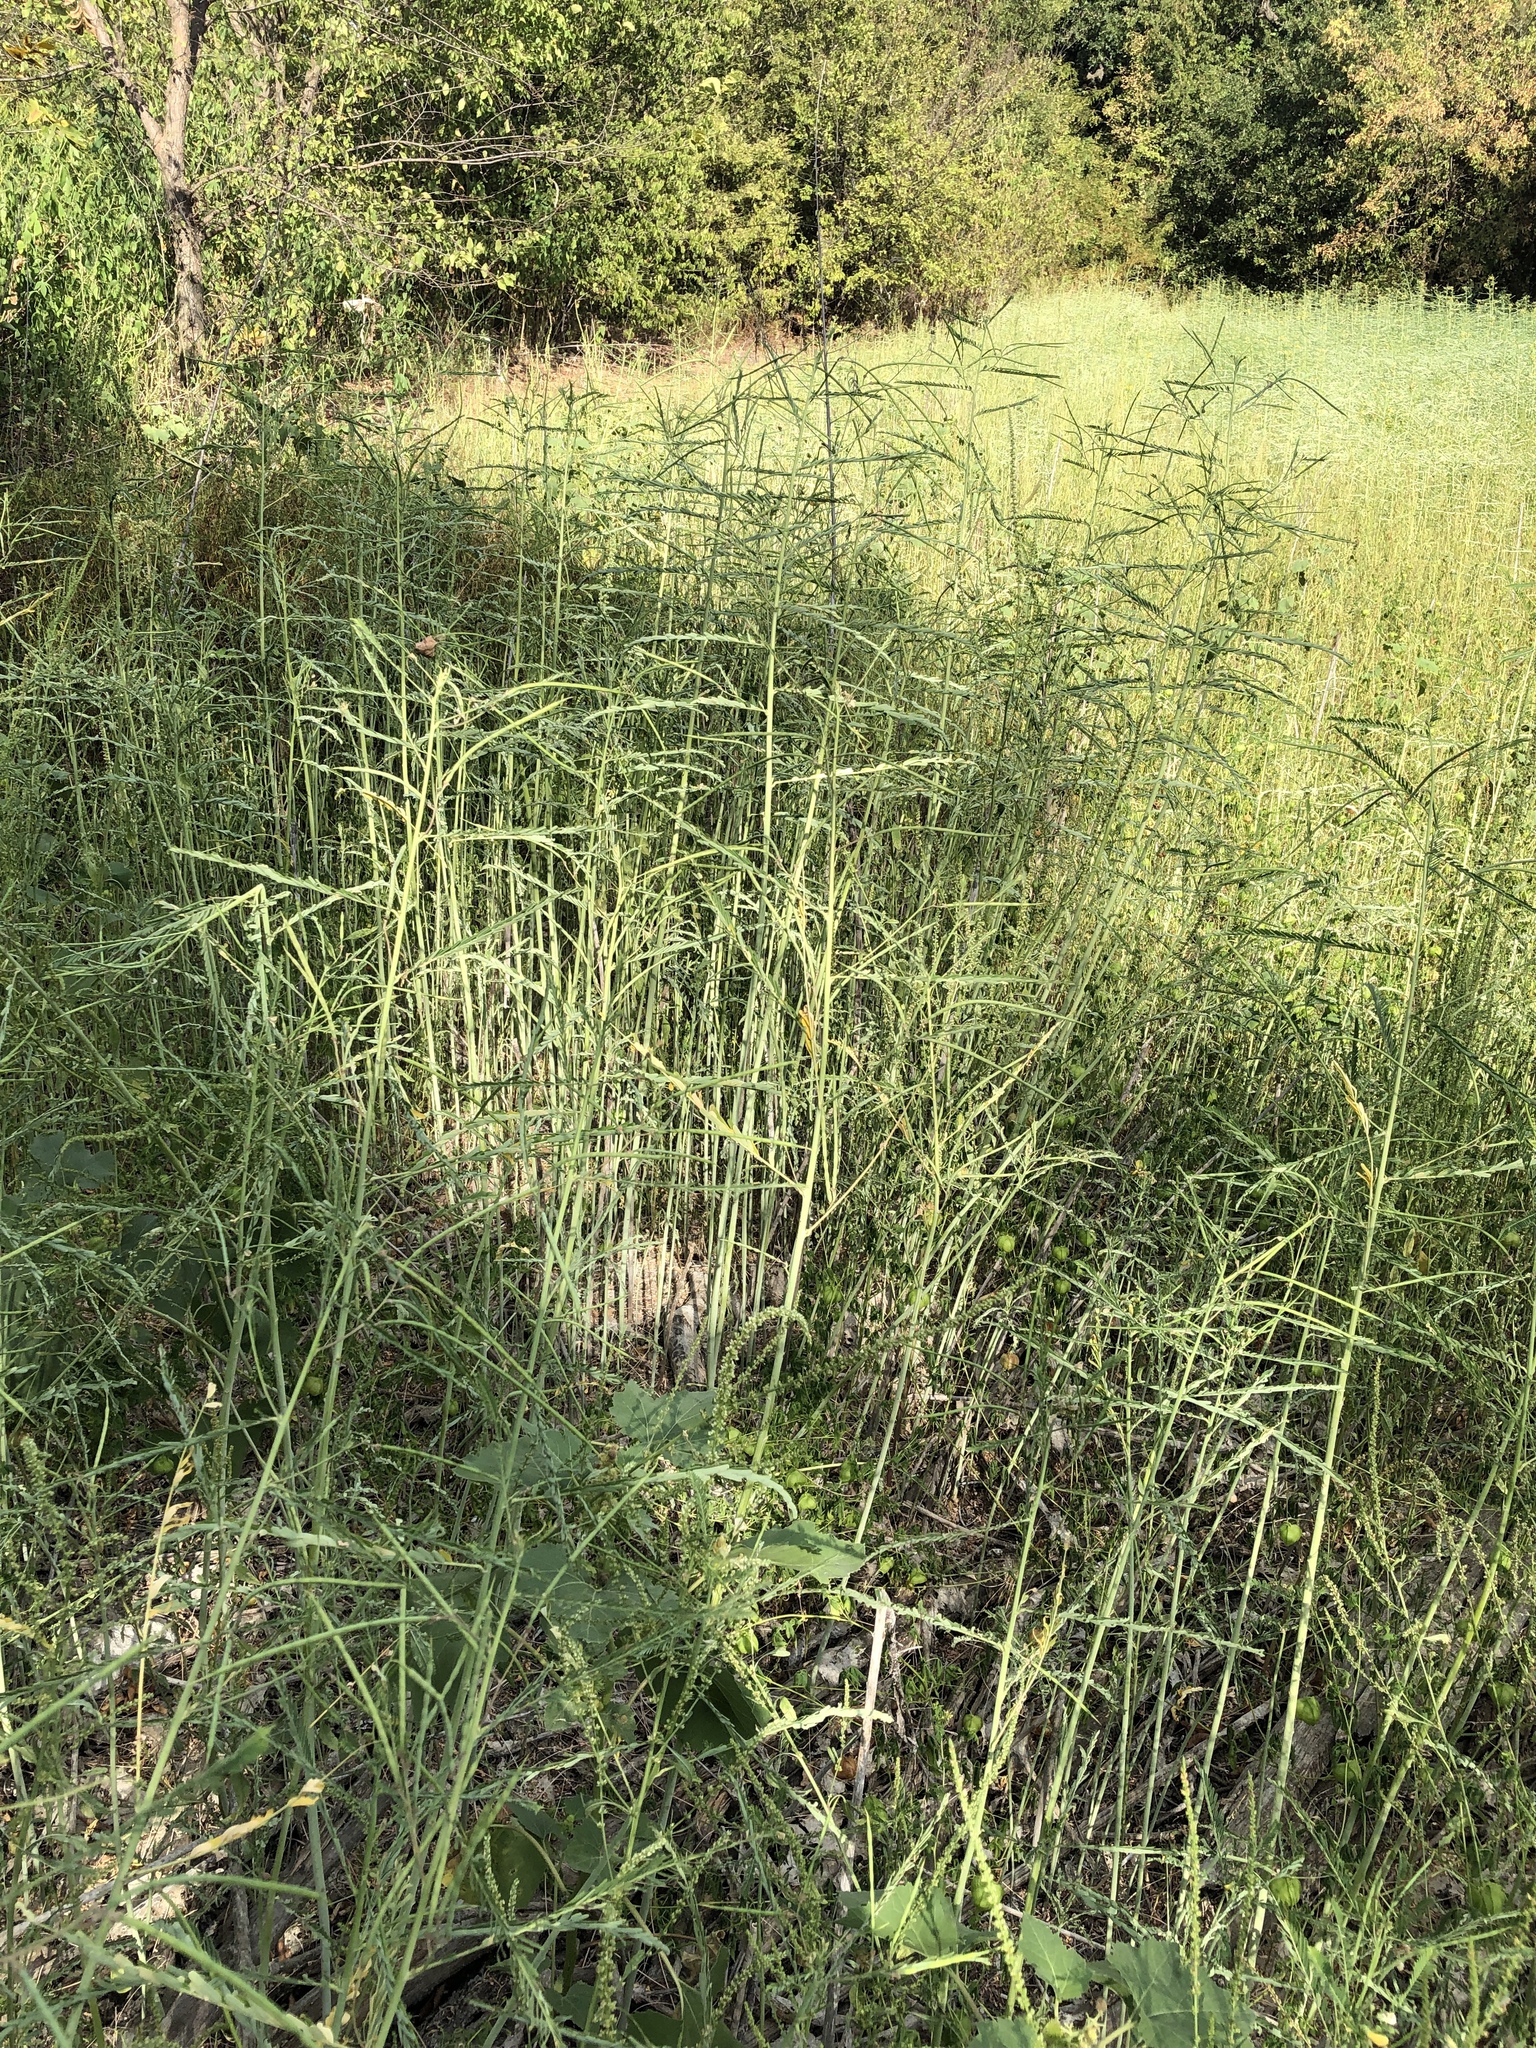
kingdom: Plantae
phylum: Tracheophyta
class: Magnoliopsida
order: Fabales
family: Fabaceae
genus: Sesbania
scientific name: Sesbania herbacea
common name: Bigpod sesbania
